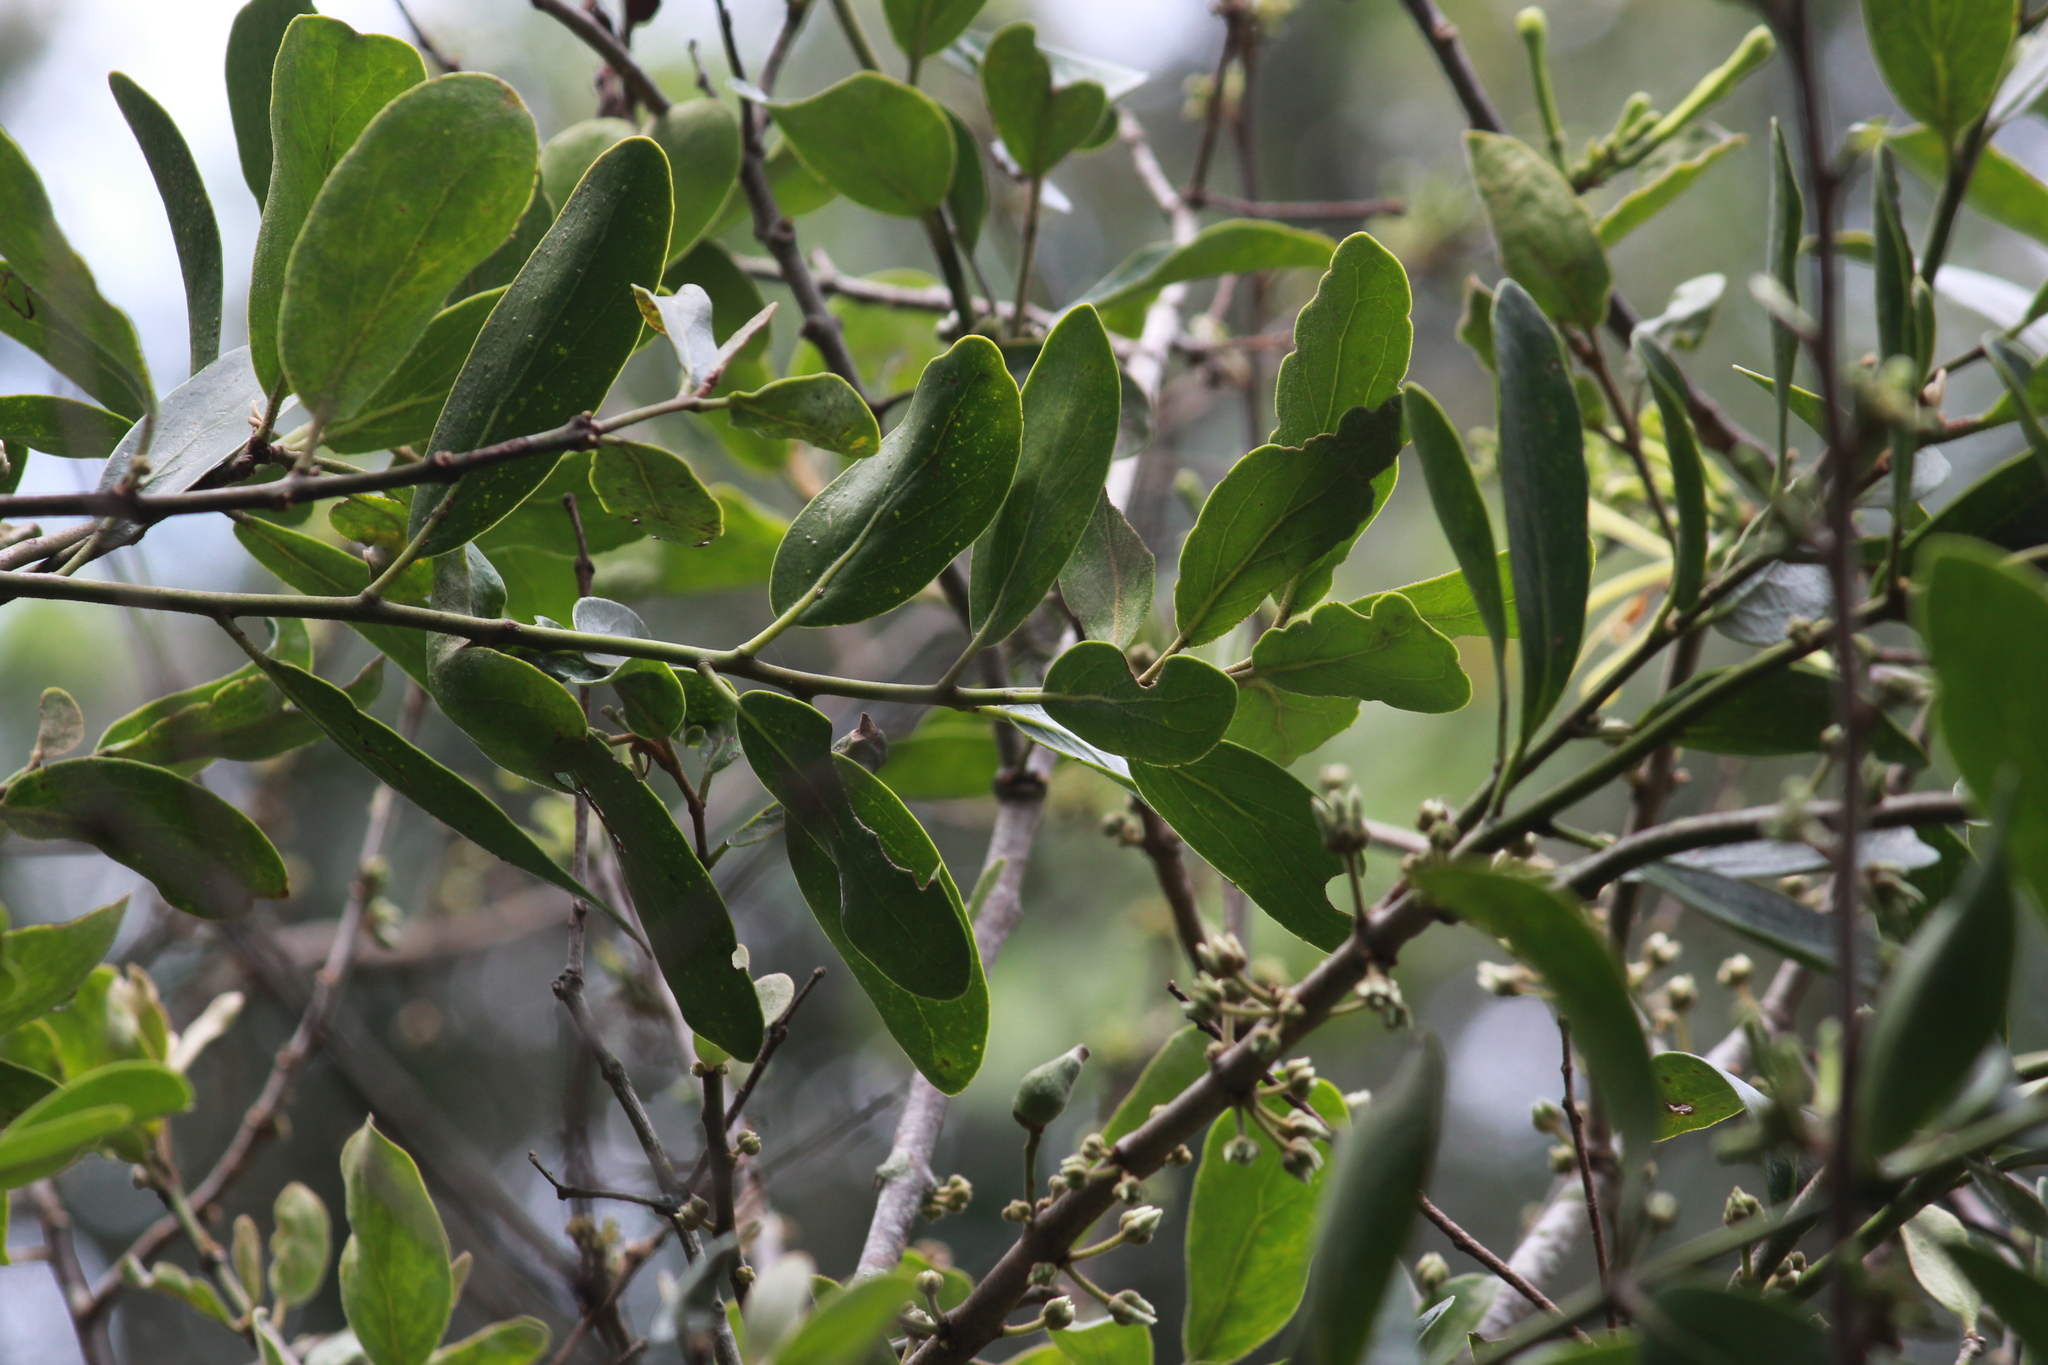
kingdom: Plantae
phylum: Tracheophyta
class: Magnoliopsida
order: Santalales
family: Loranthaceae
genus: Erianthemum
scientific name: Erianthemum dregei
